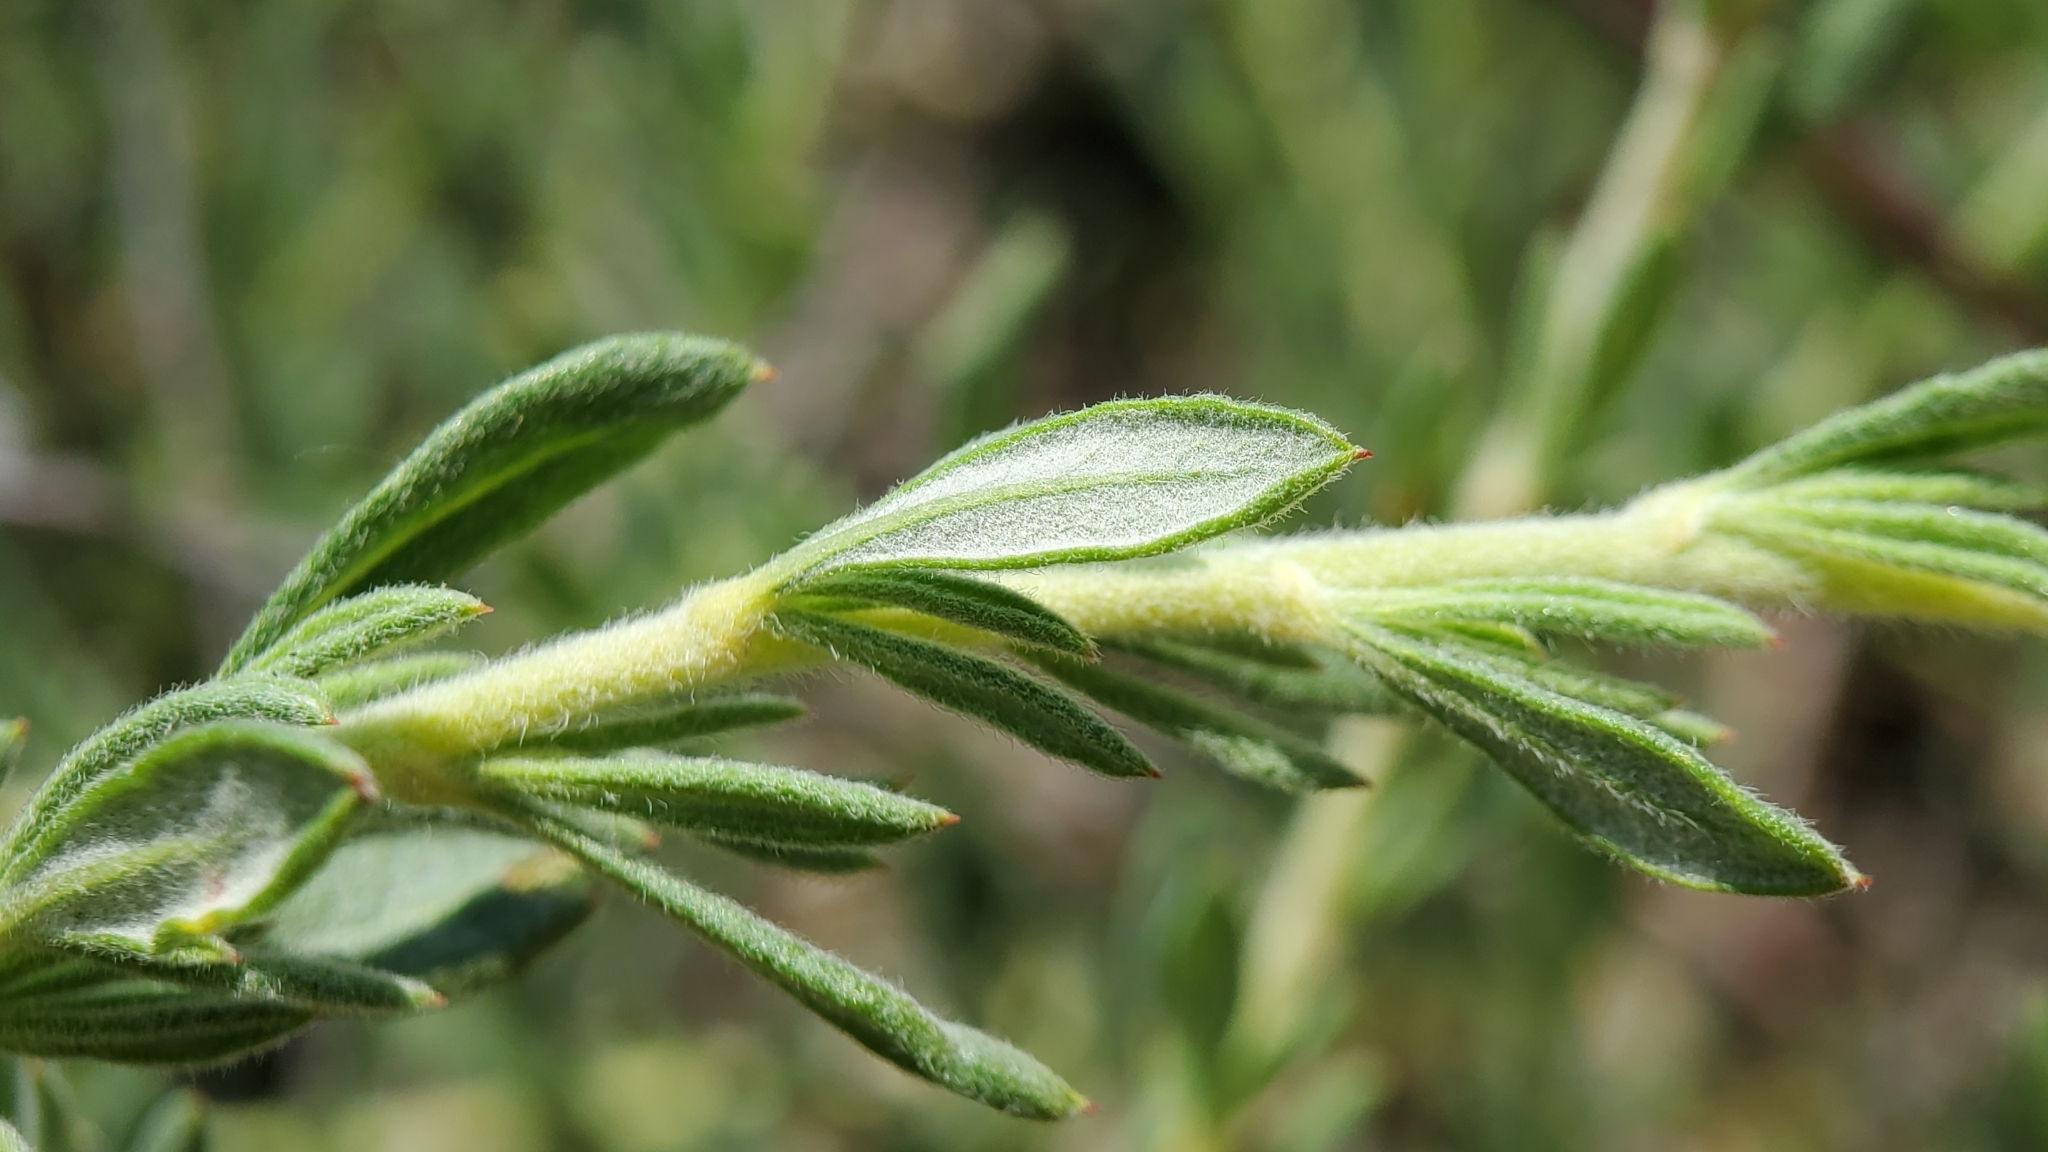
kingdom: Plantae
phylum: Tracheophyta
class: Magnoliopsida
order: Caryophyllales
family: Polygonaceae
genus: Eriogonum
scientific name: Eriogonum fasciculatum
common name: California wild buckwheat
